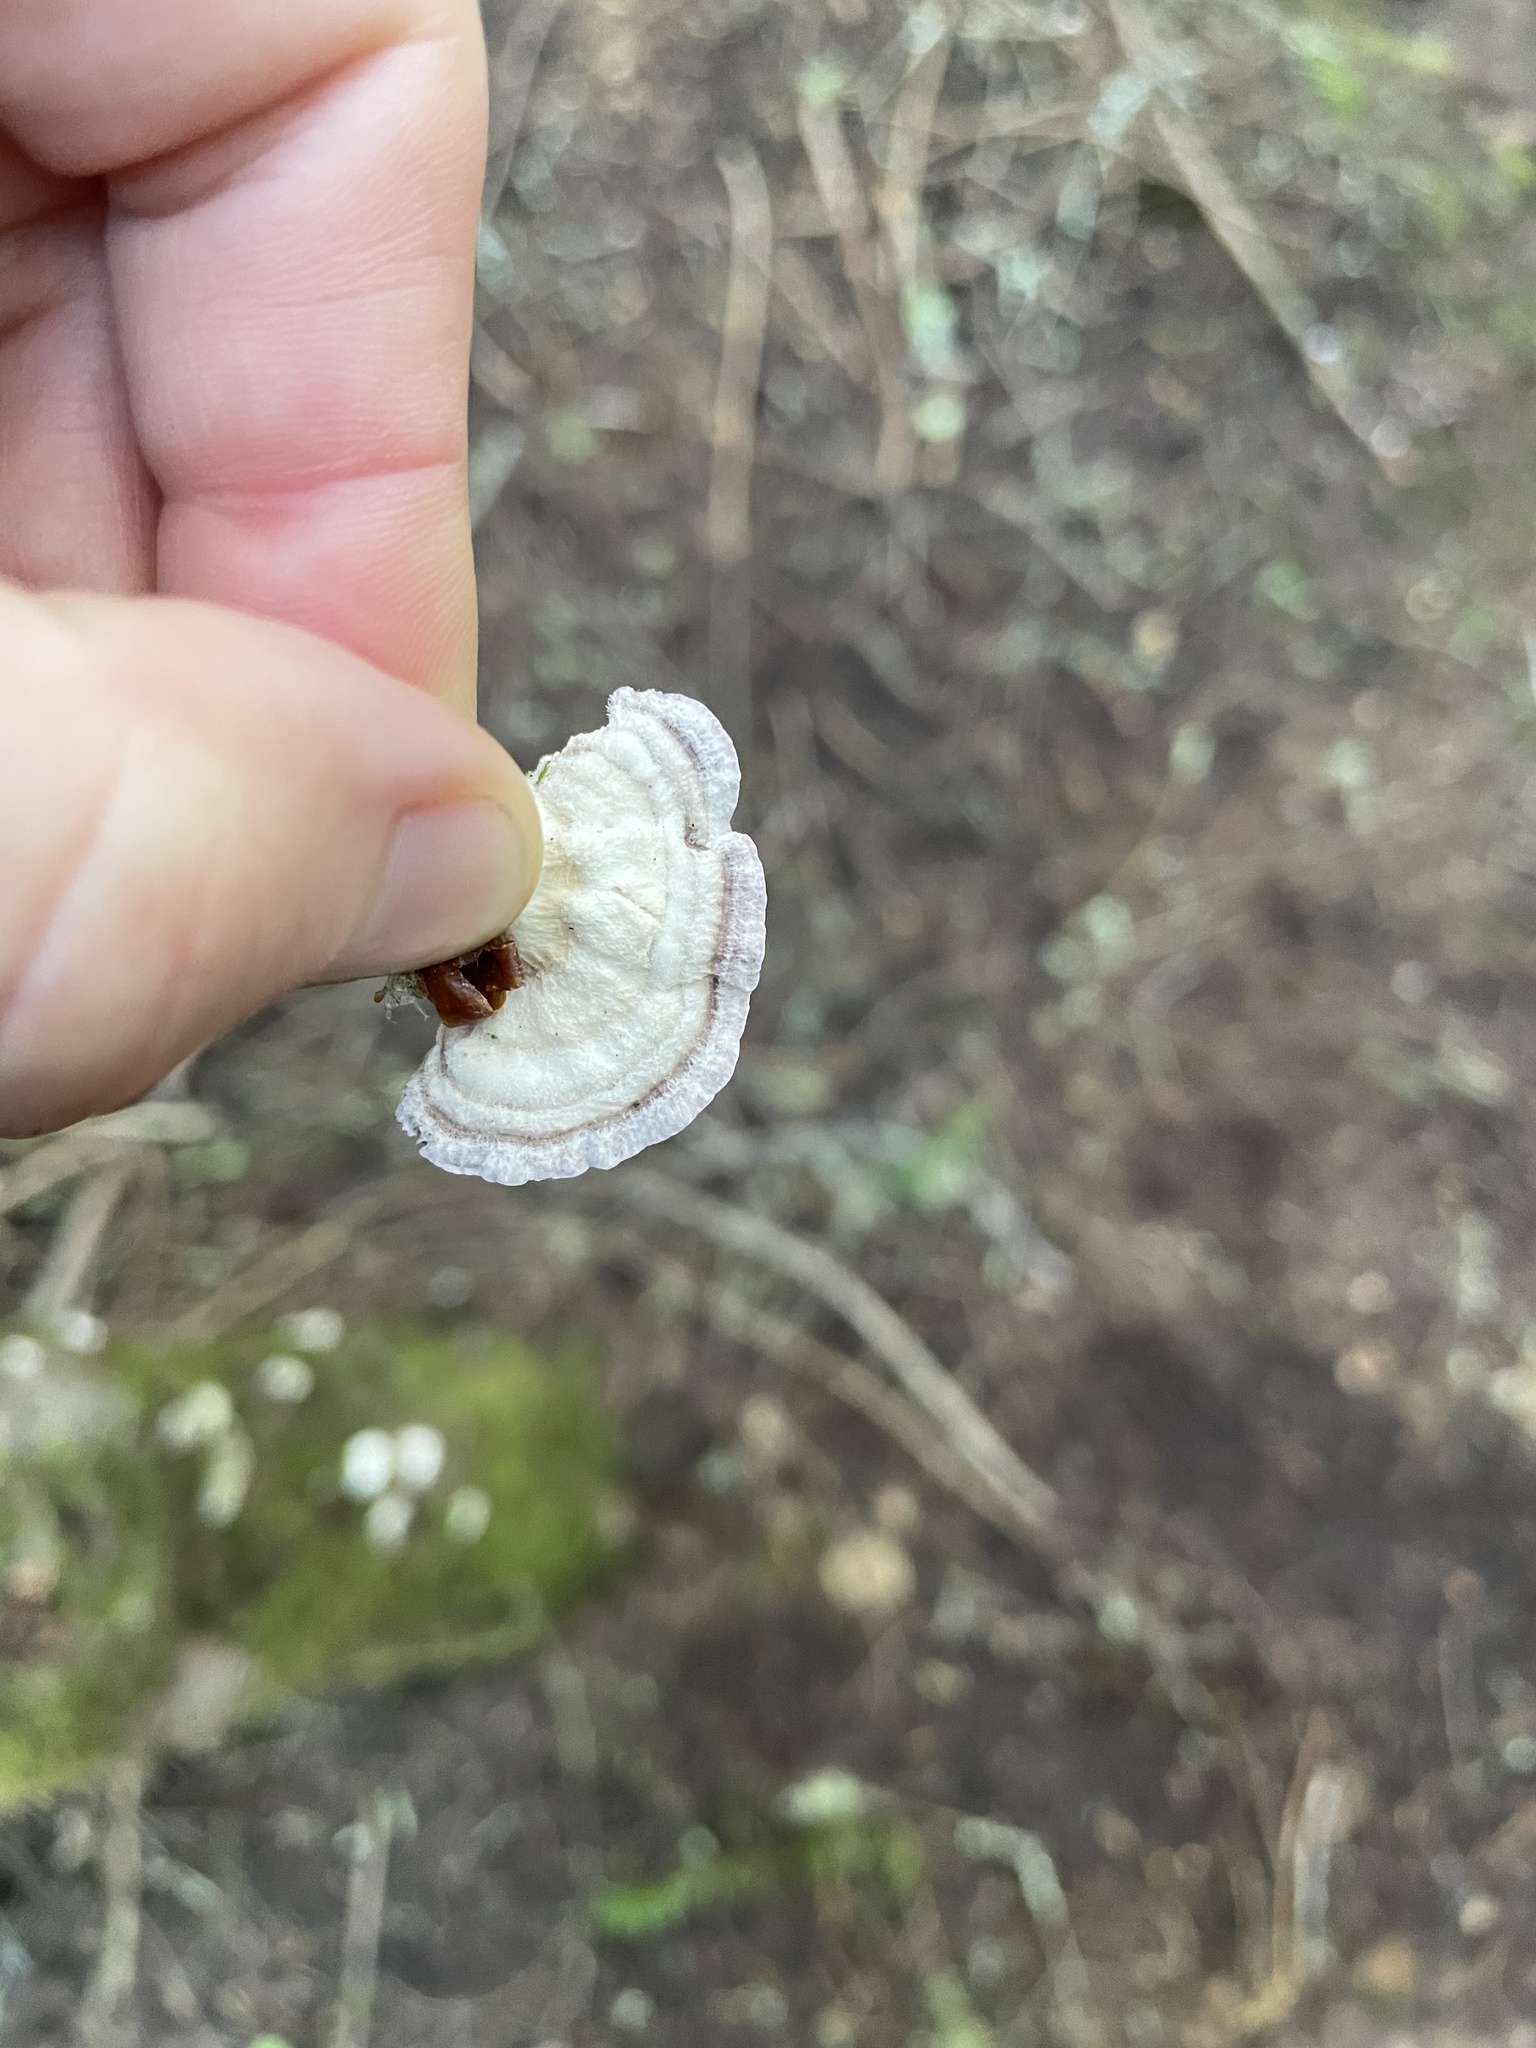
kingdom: Fungi
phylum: Basidiomycota
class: Agaricomycetes
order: Hymenochaetales
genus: Trichaptum
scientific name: Trichaptum abietinum
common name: Purplepore bracket
